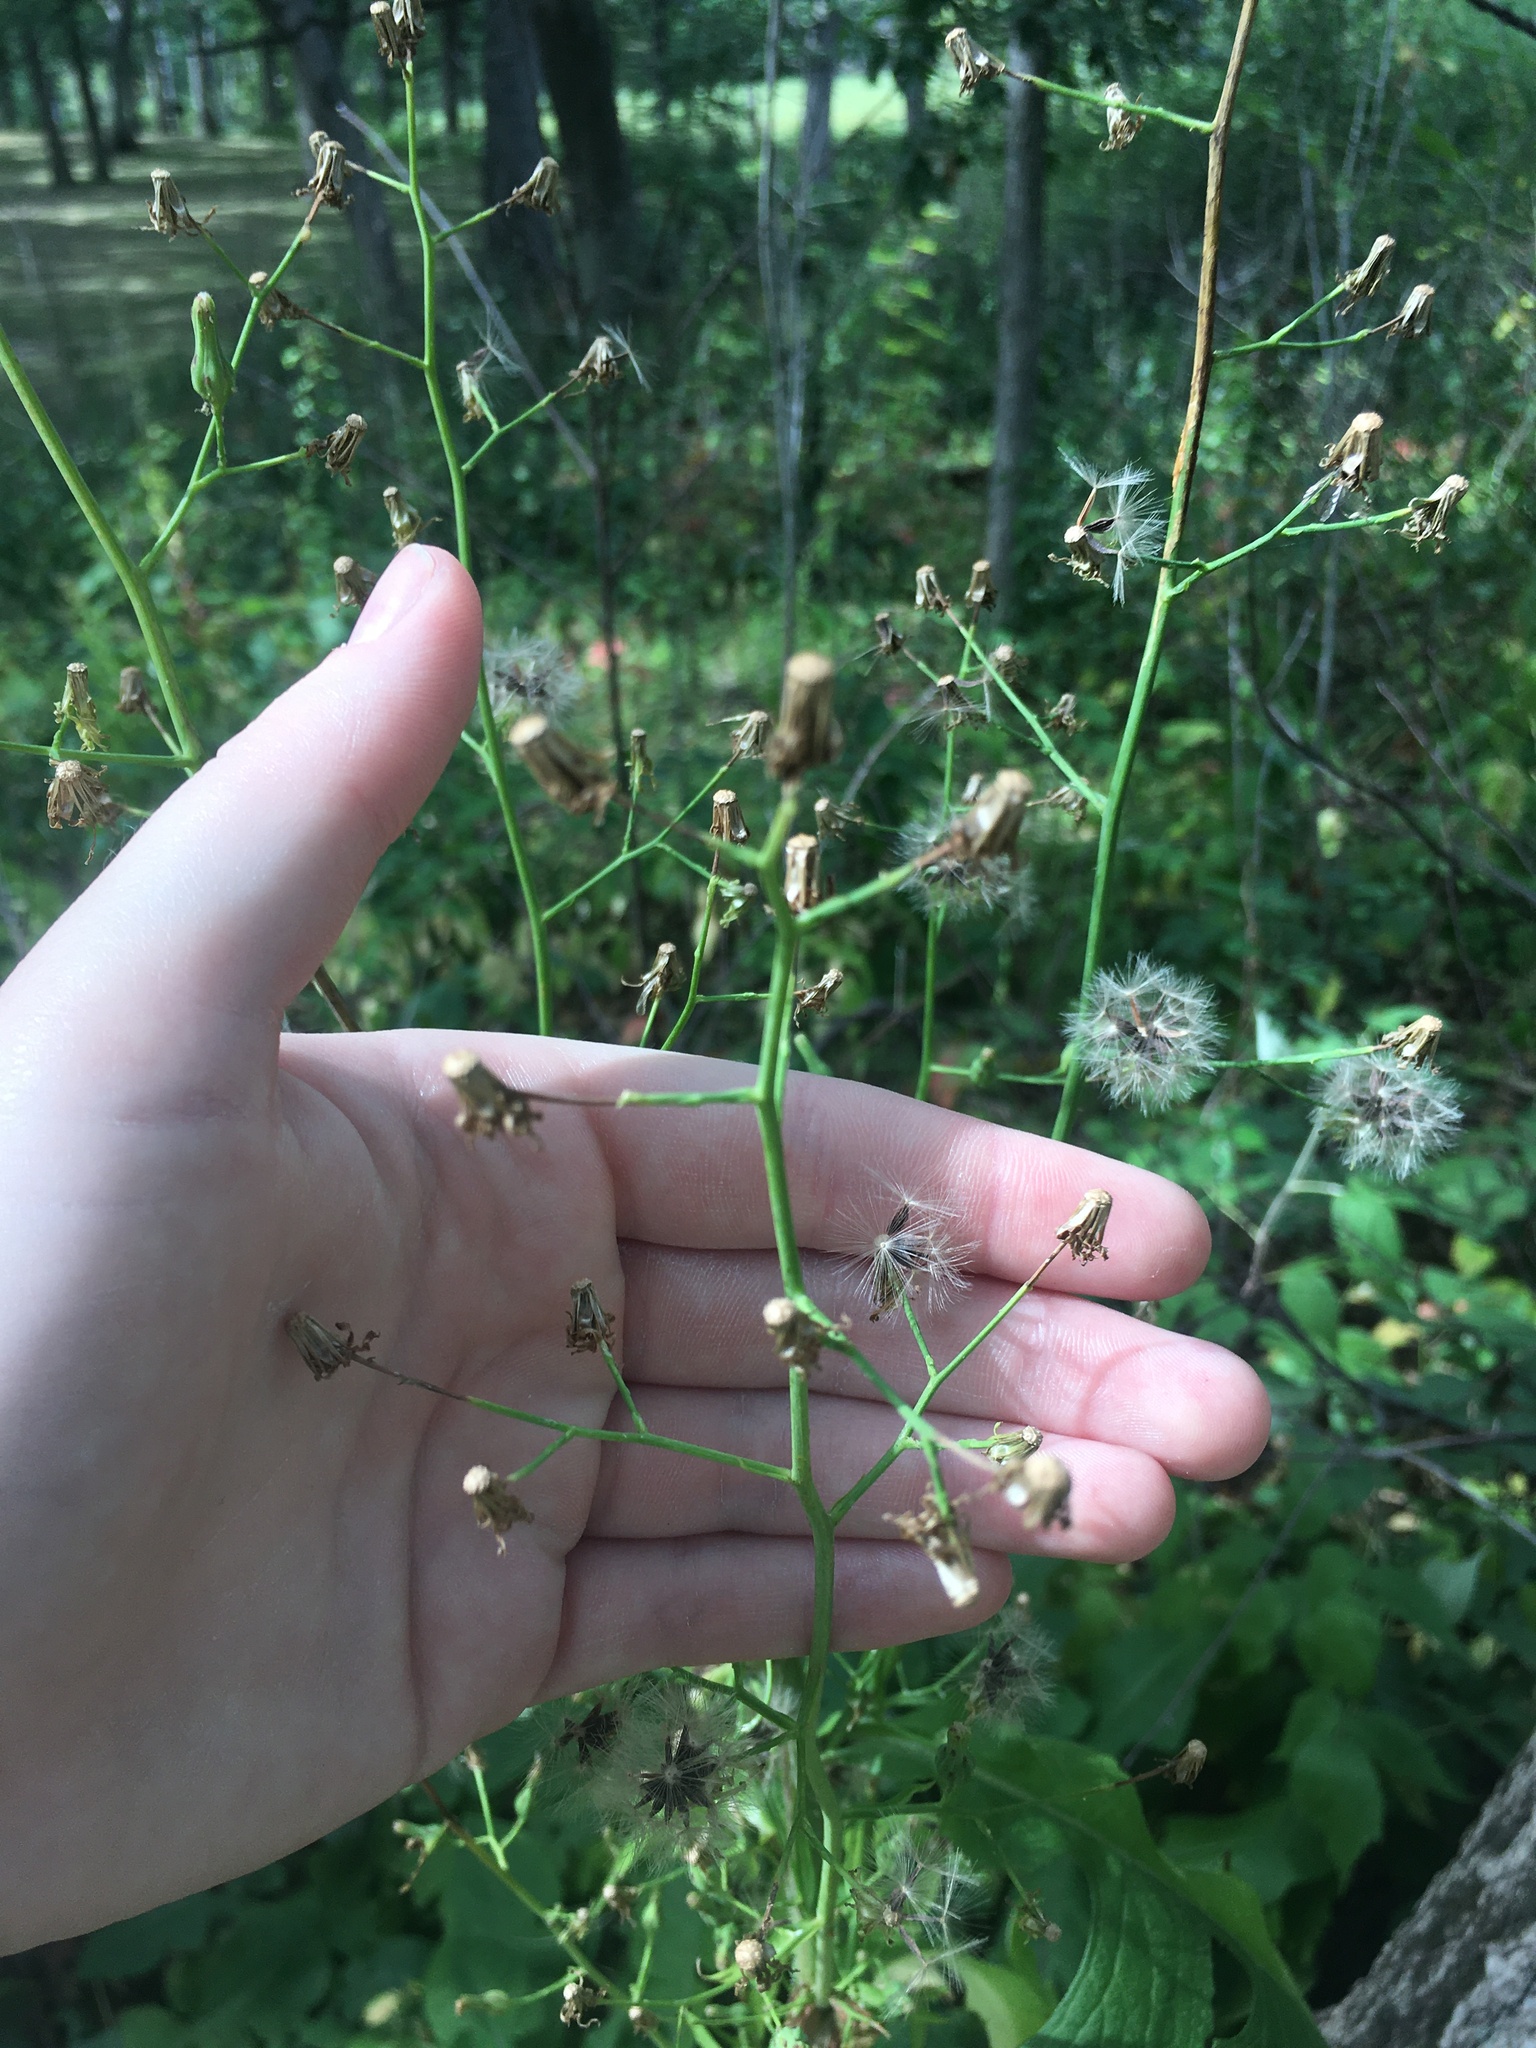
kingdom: Plantae
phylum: Tracheophyta
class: Magnoliopsida
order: Asterales
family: Asteraceae
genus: Lactuca
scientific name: Lactuca floridana
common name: Woodland lettuce
